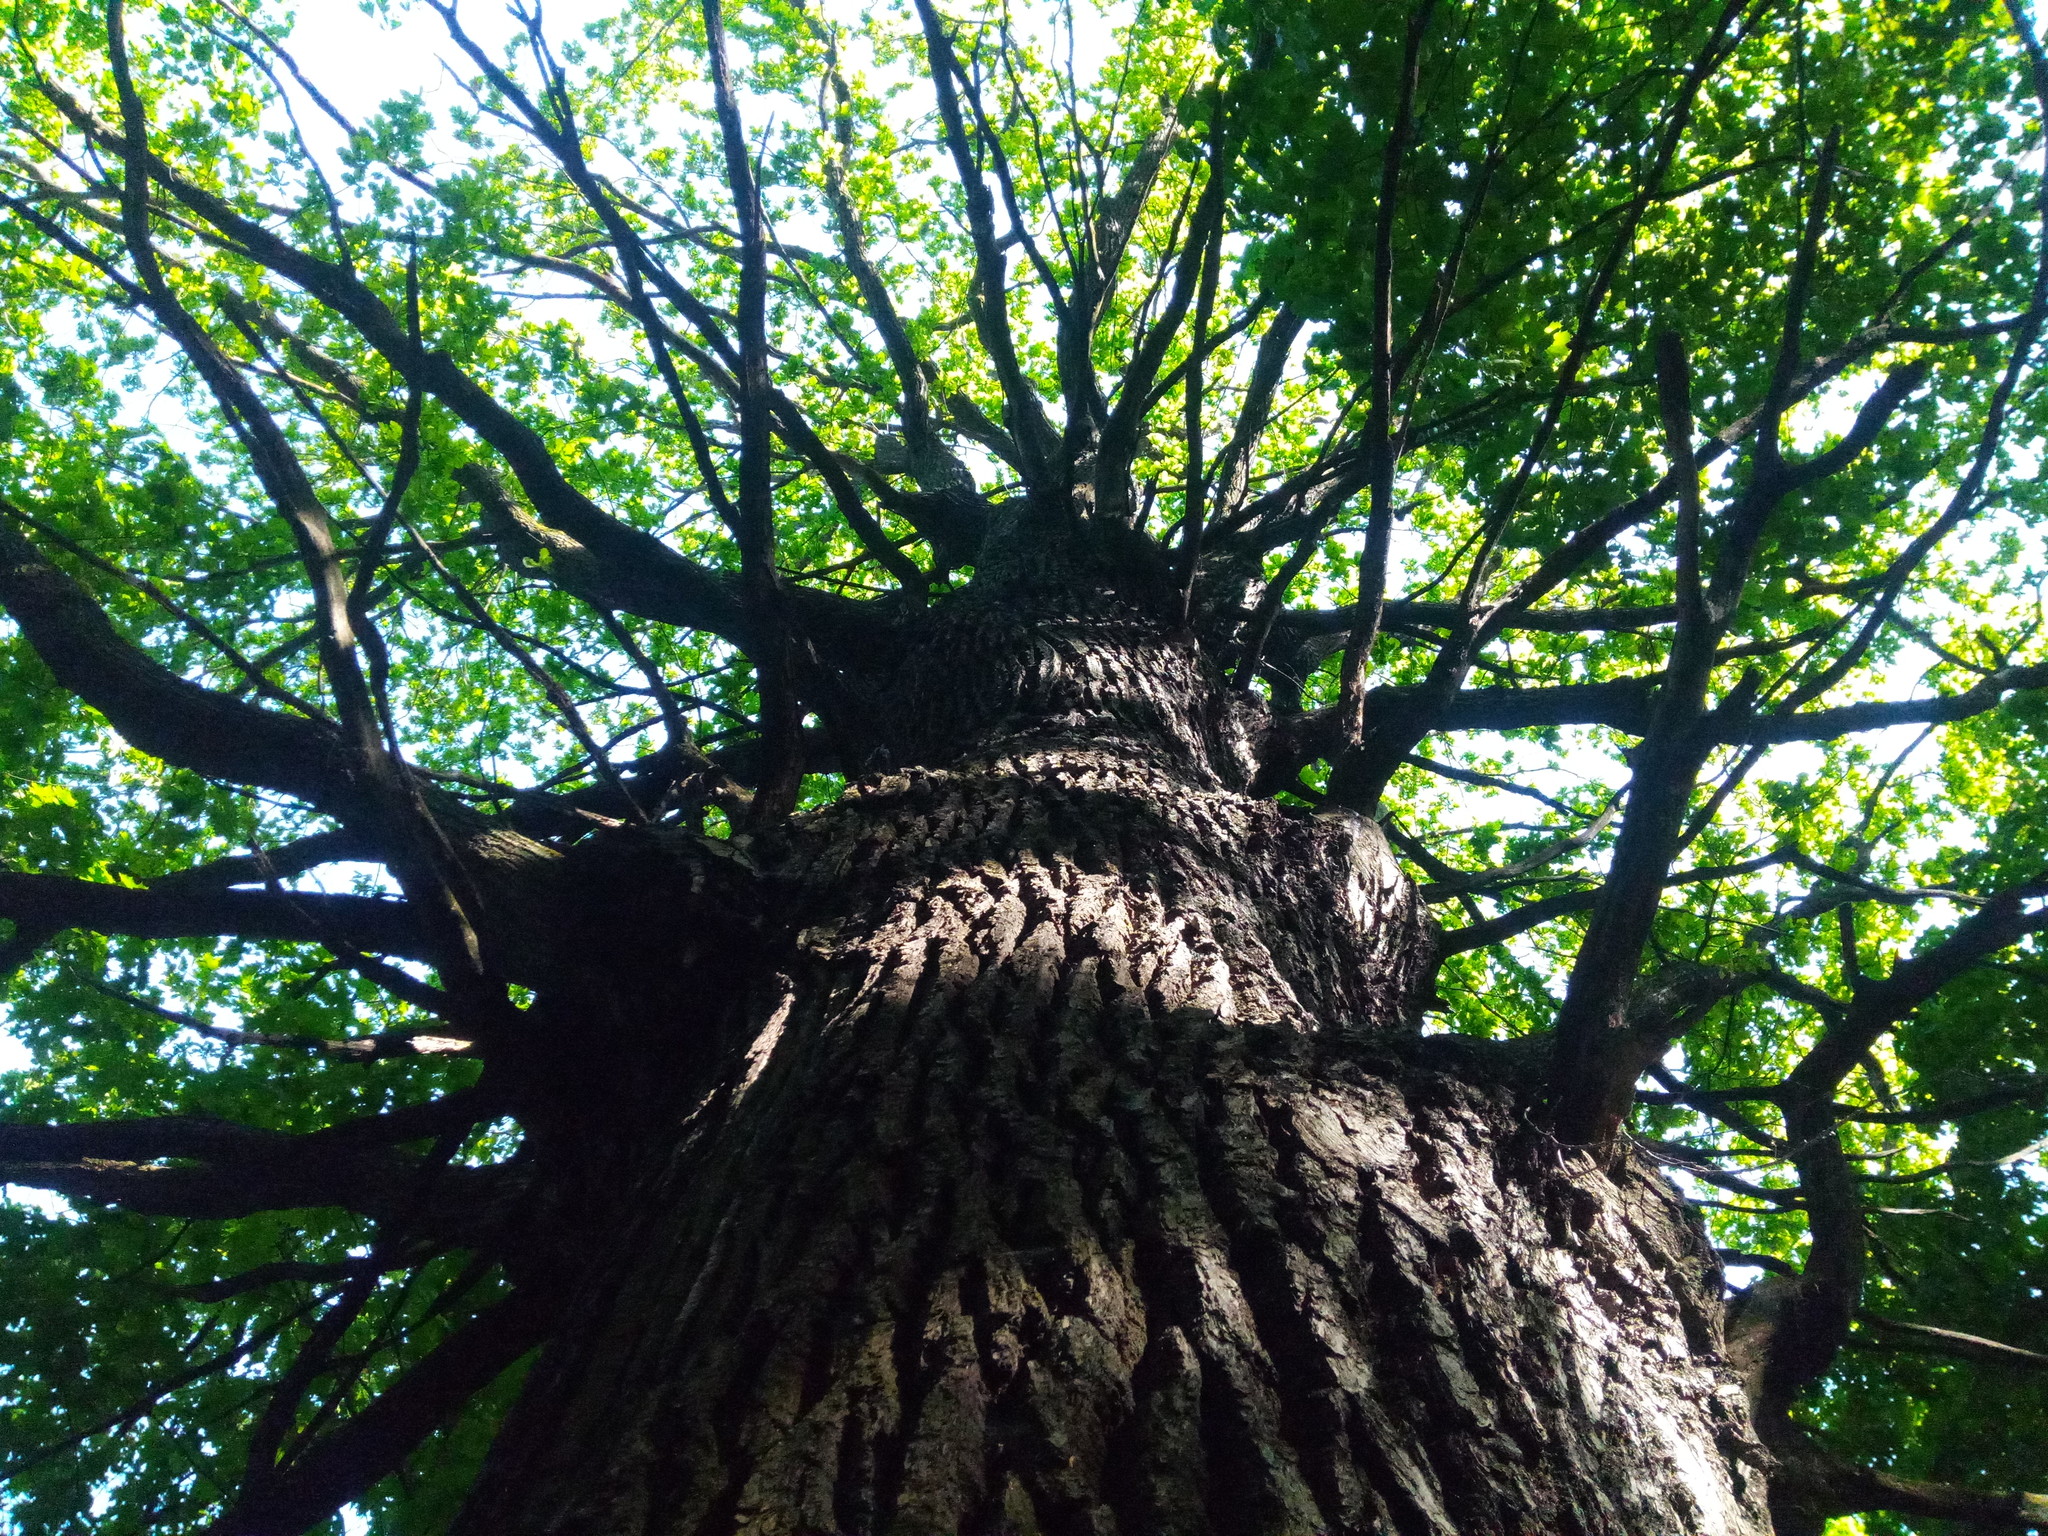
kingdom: Plantae
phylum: Tracheophyta
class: Magnoliopsida
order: Fagales
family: Fagaceae
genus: Quercus
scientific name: Quercus robur
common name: Pedunculate oak
